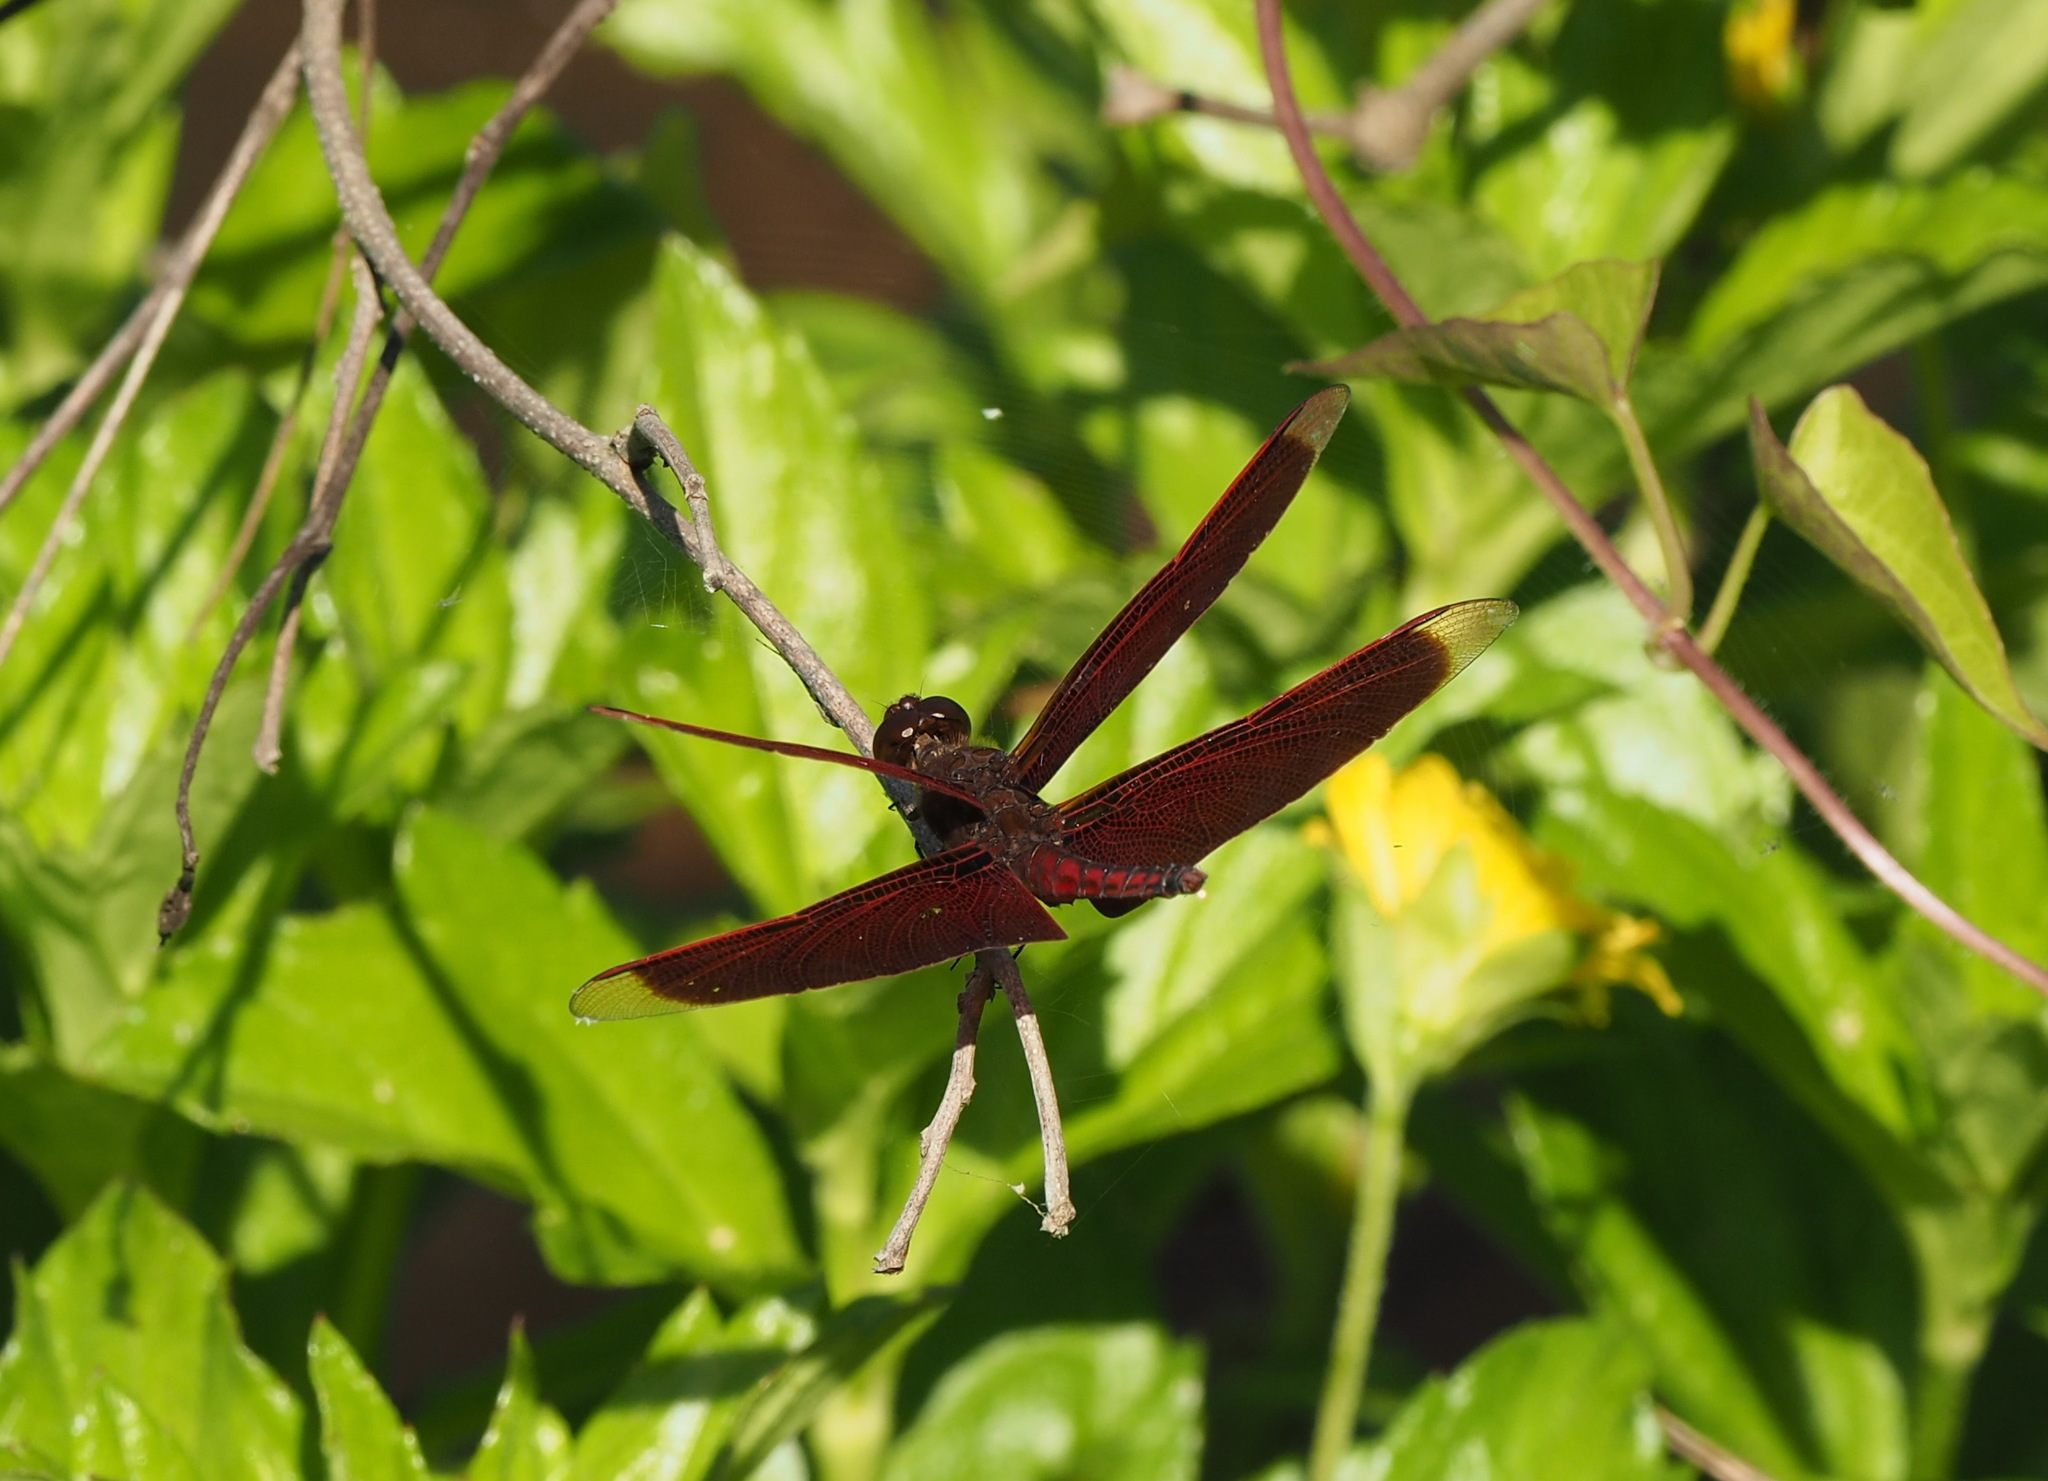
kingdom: Animalia
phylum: Arthropoda
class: Insecta
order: Odonata
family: Libellulidae
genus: Neurothemis
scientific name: Neurothemis taiwanensis
